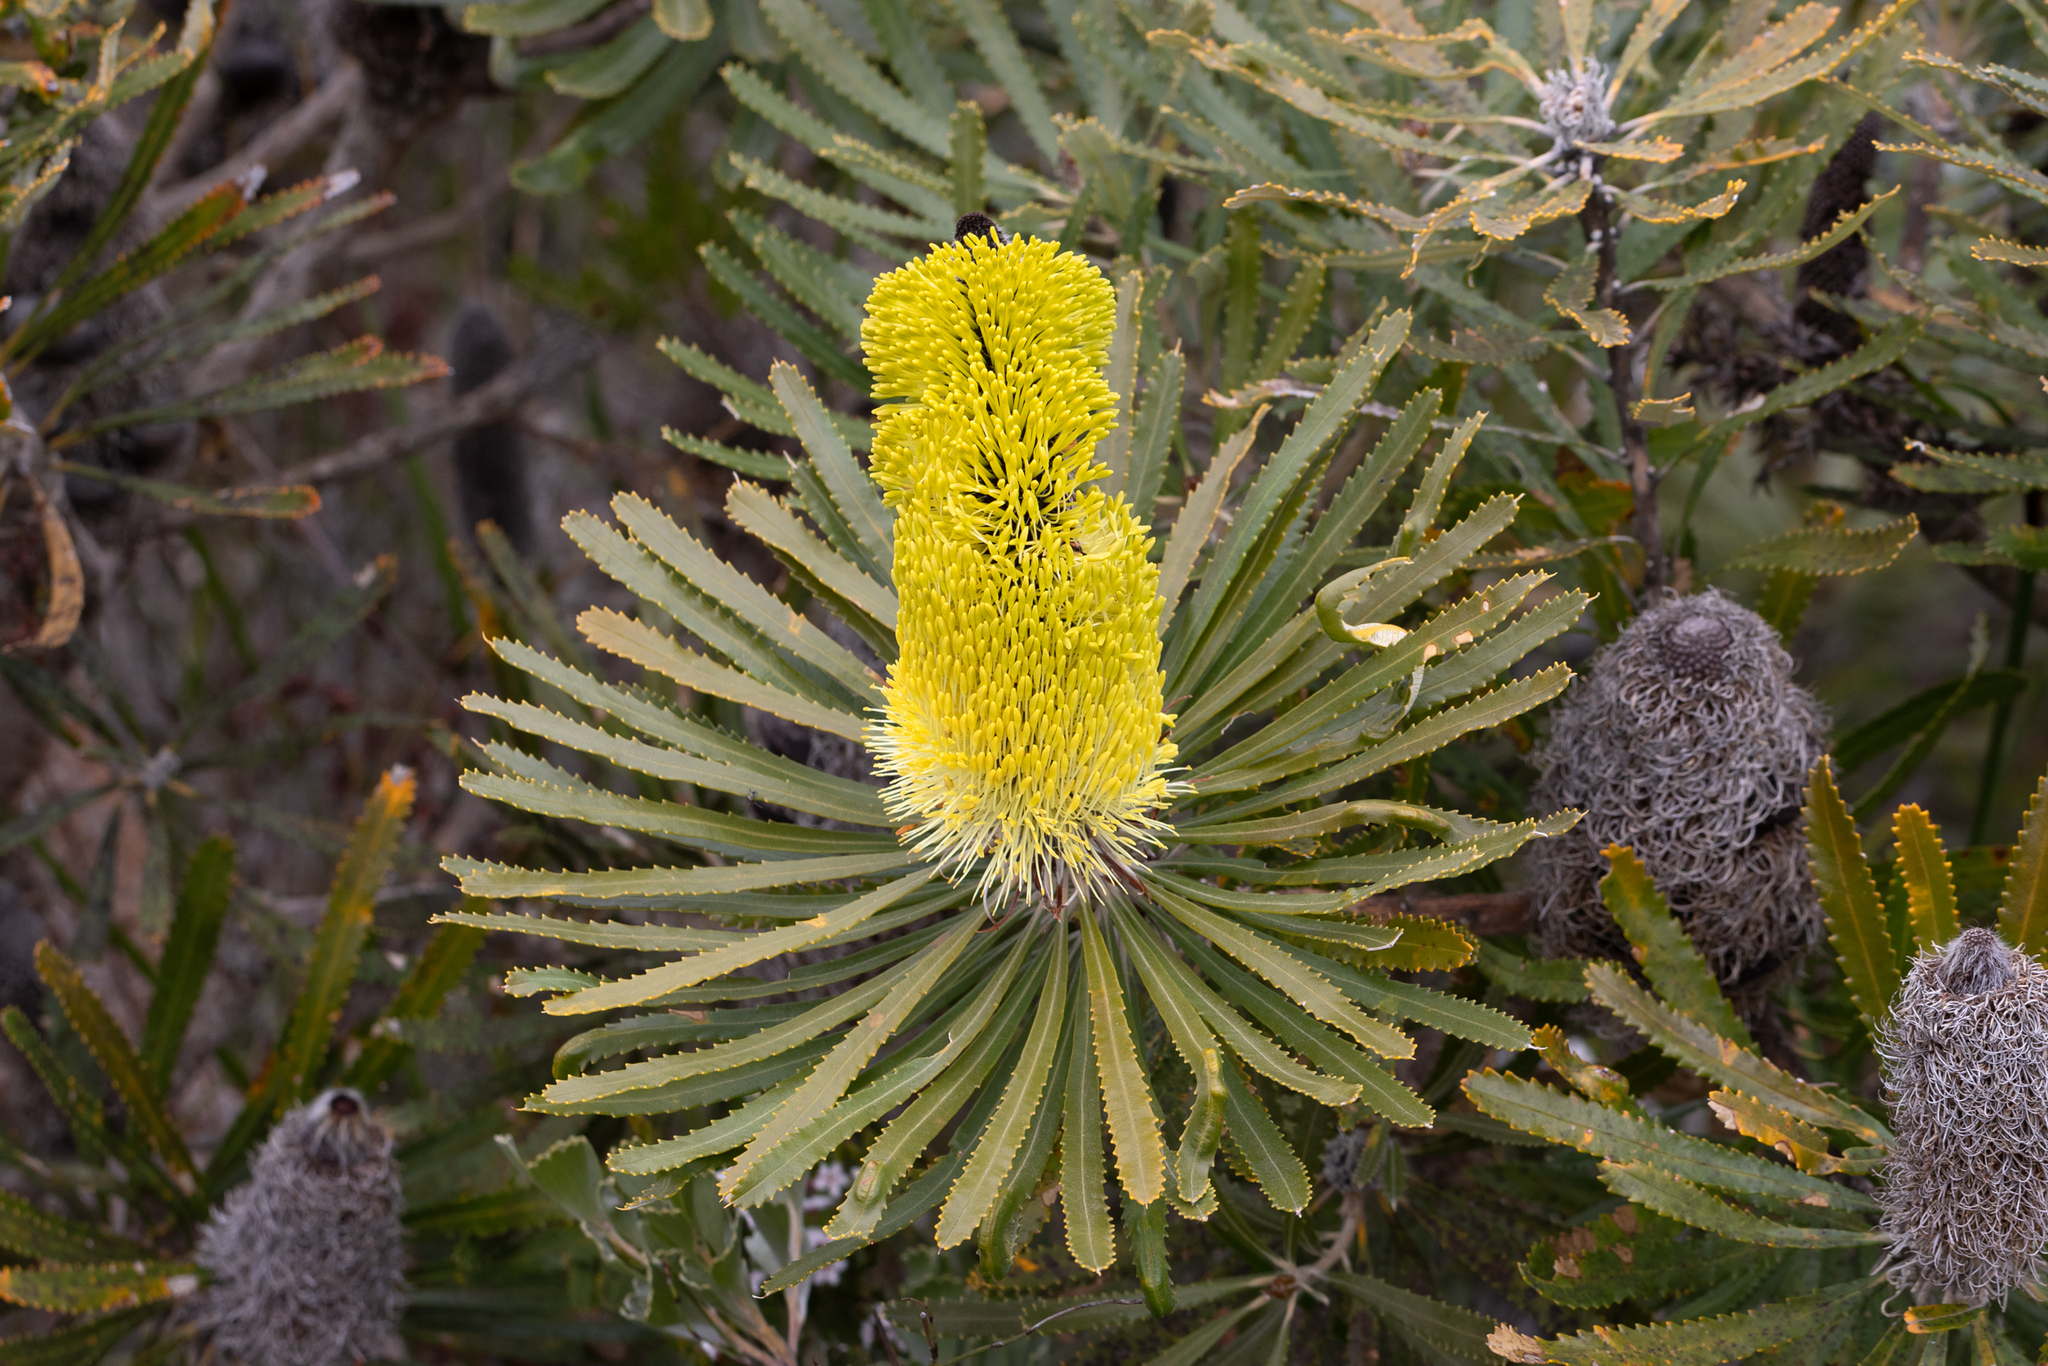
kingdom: Plantae
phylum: Tracheophyta
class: Magnoliopsida
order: Proteales
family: Proteaceae
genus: Banksia
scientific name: Banksia attenuata
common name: Coast banksia
